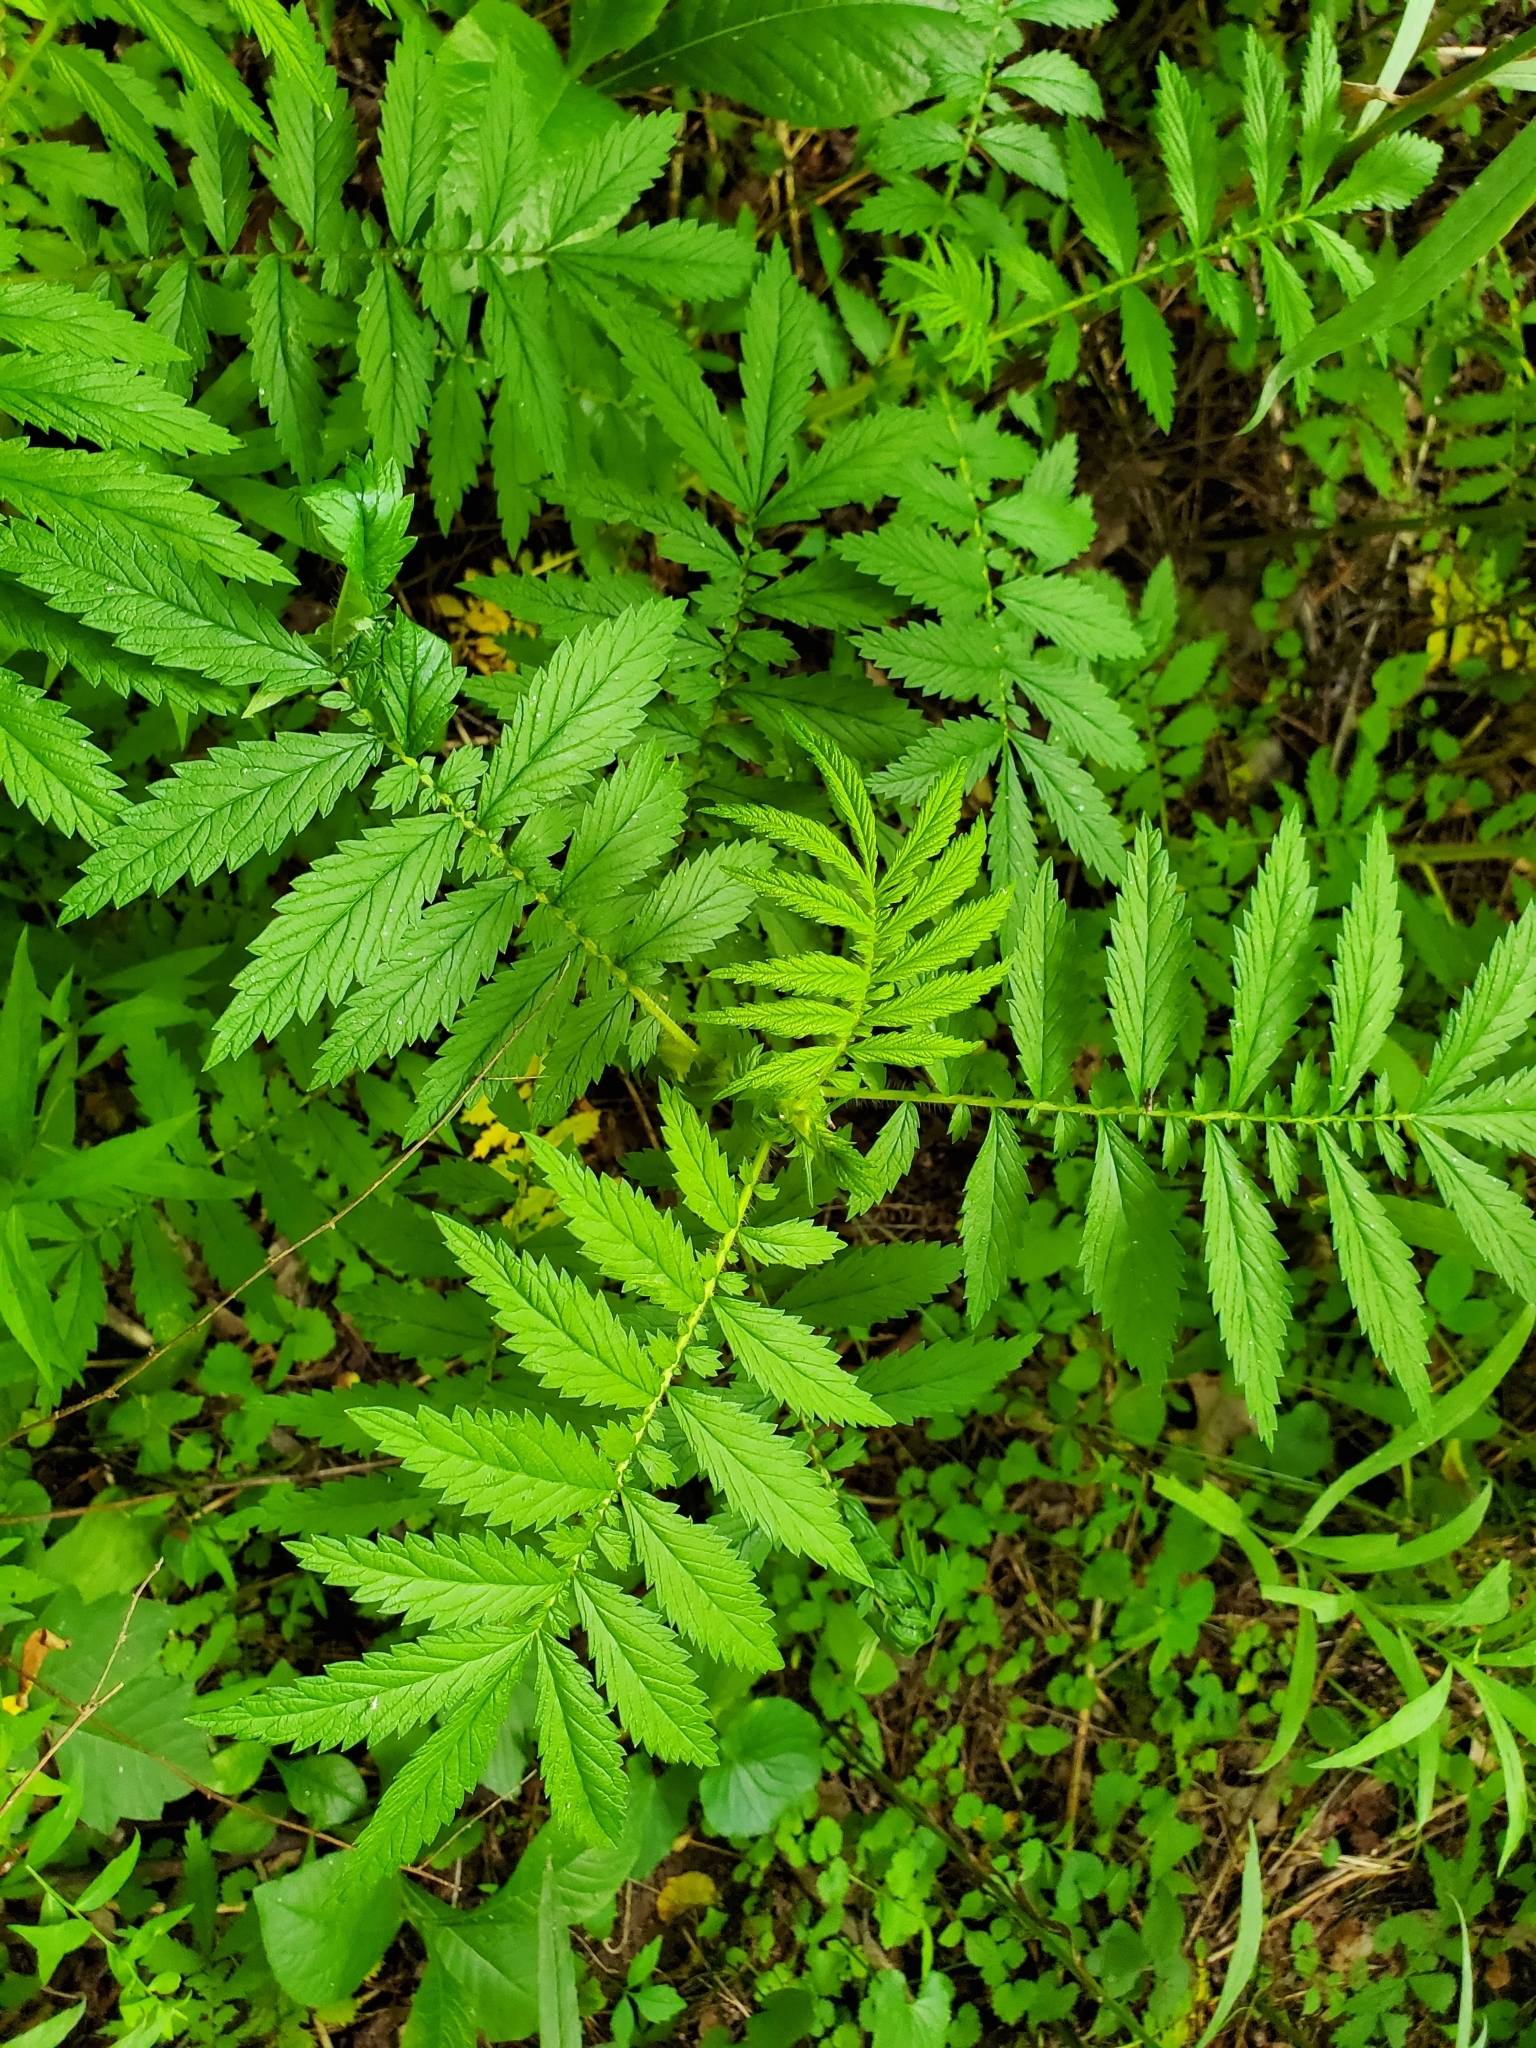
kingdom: Plantae
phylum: Tracheophyta
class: Magnoliopsida
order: Rosales
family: Rosaceae
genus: Agrimonia
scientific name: Agrimonia parviflora
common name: Harvest-lice
